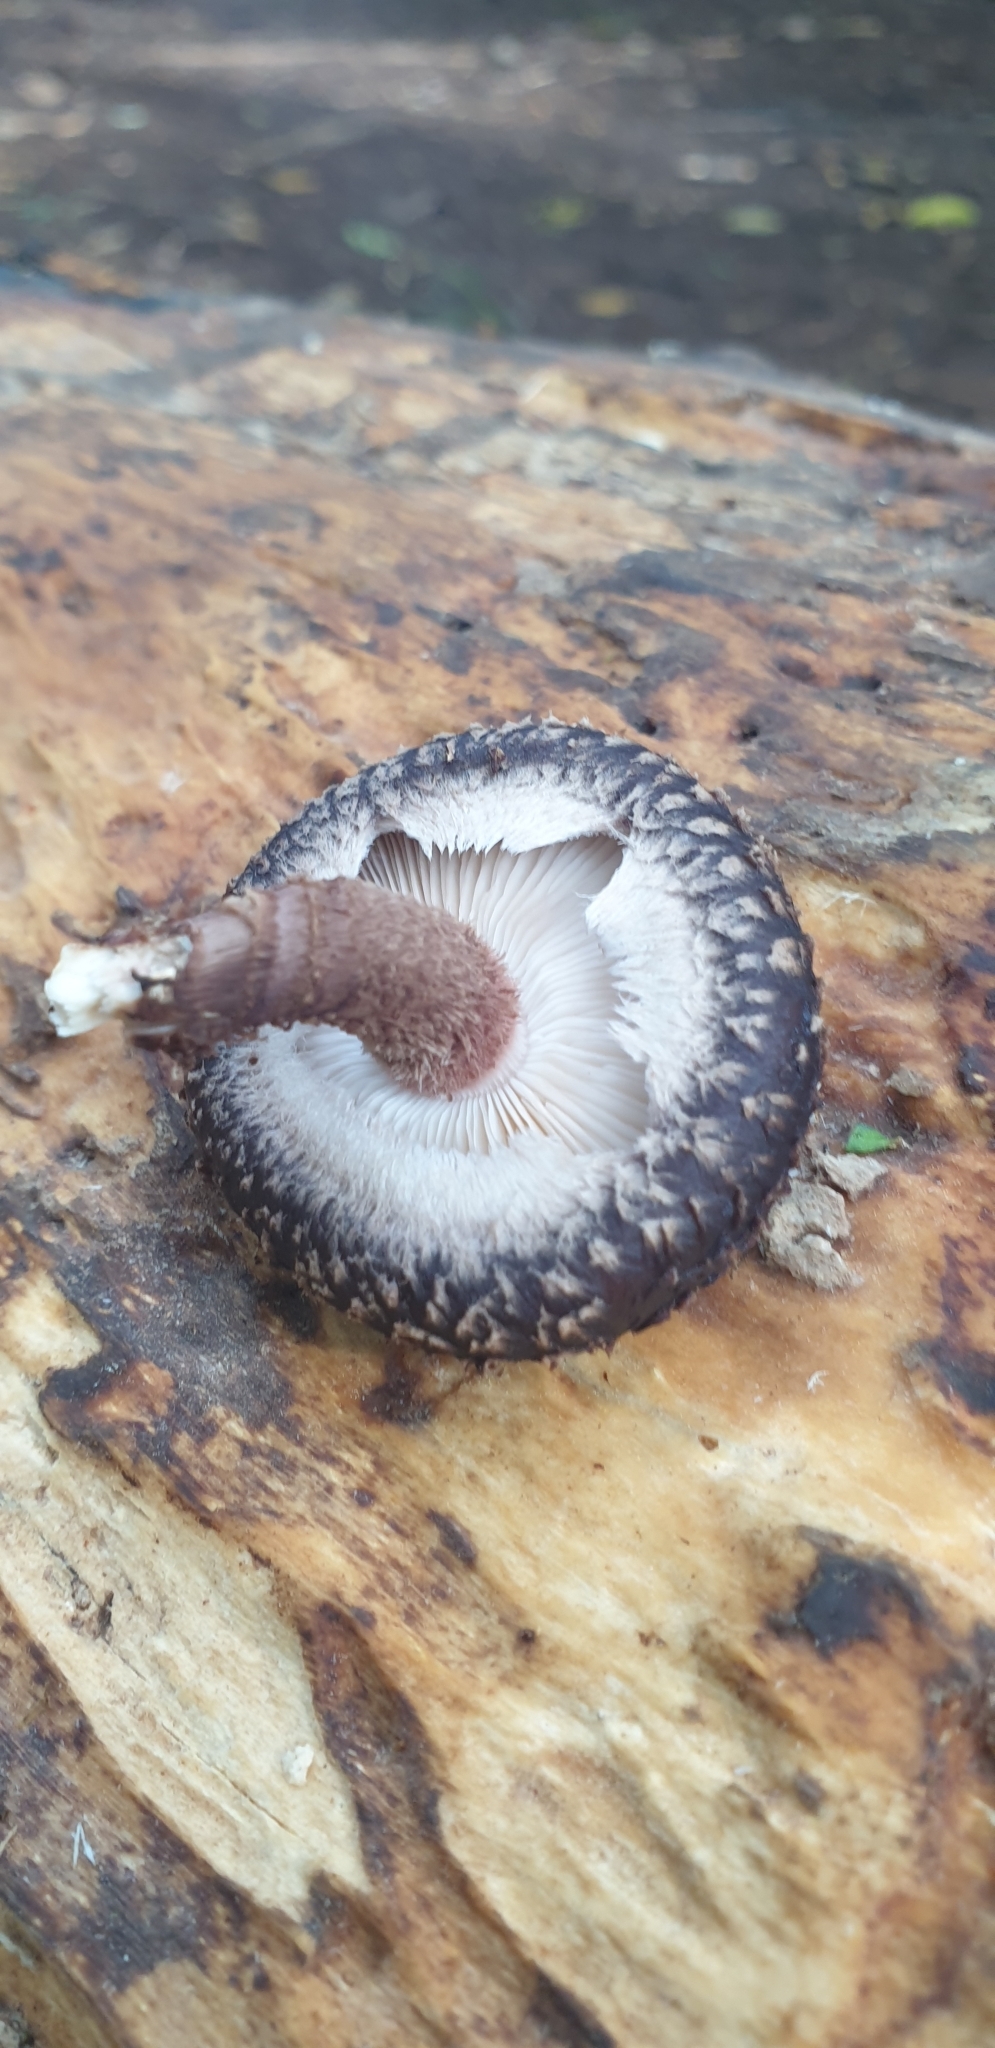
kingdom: Fungi
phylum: Basidiomycota
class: Agaricomycetes
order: Agaricales
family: Omphalotaceae
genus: Lentinula
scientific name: Lentinula novae-zelandiae
